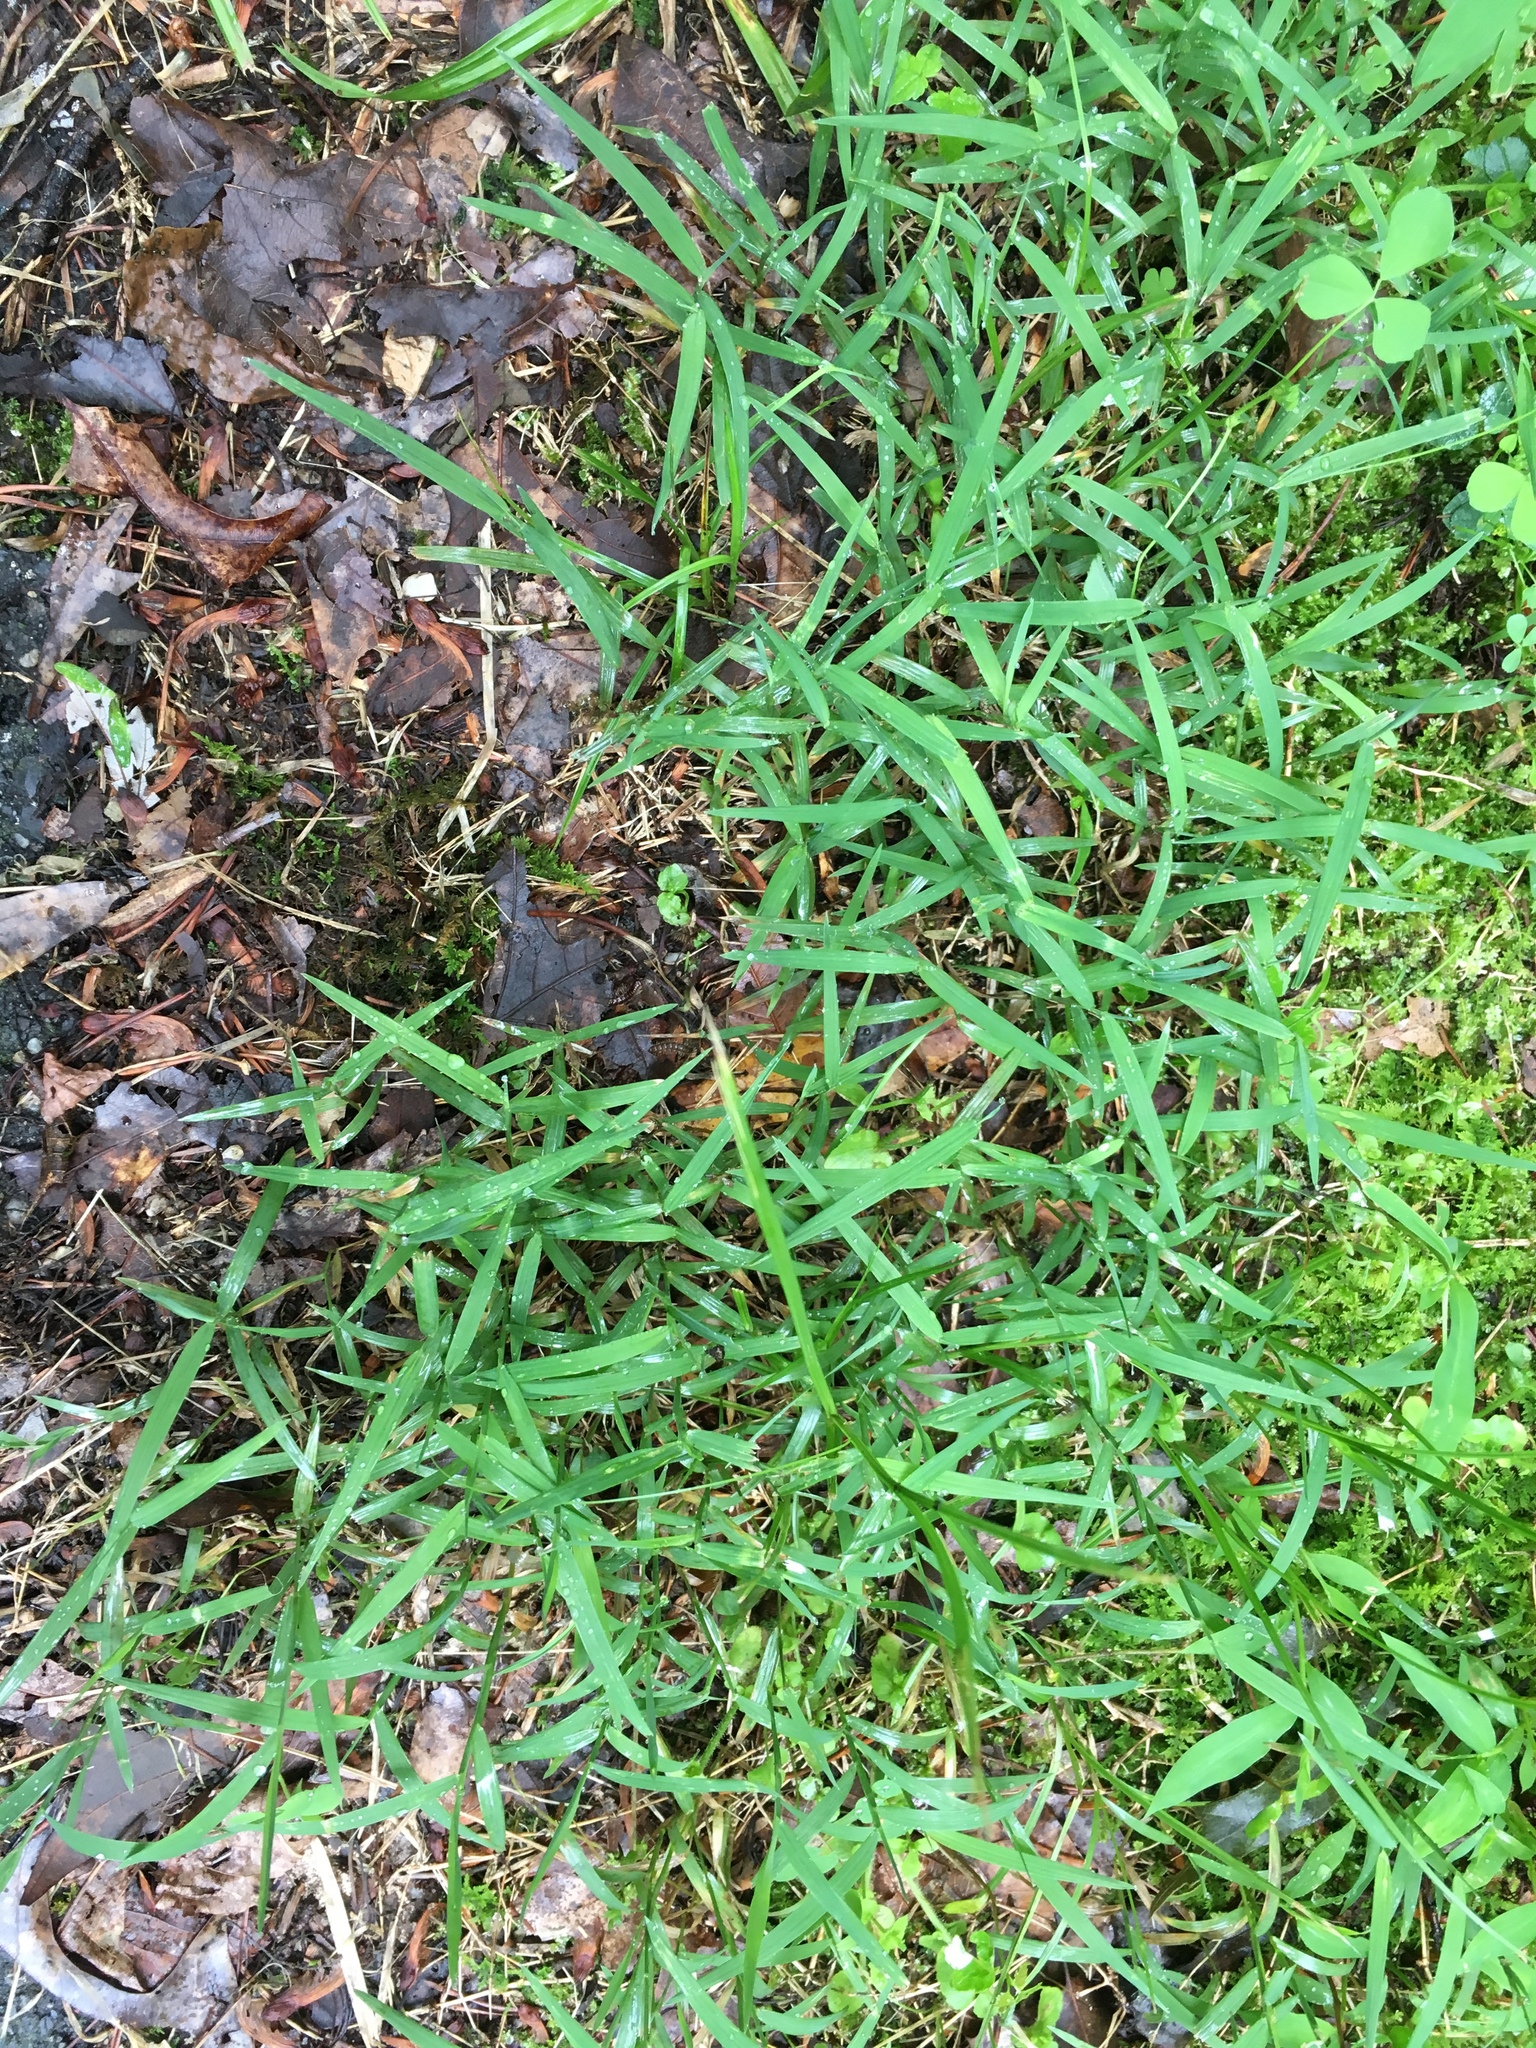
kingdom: Plantae
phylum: Tracheophyta
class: Liliopsida
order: Poales
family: Poaceae
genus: Muhlenbergia
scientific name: Muhlenbergia schreberi
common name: Nimblewill
